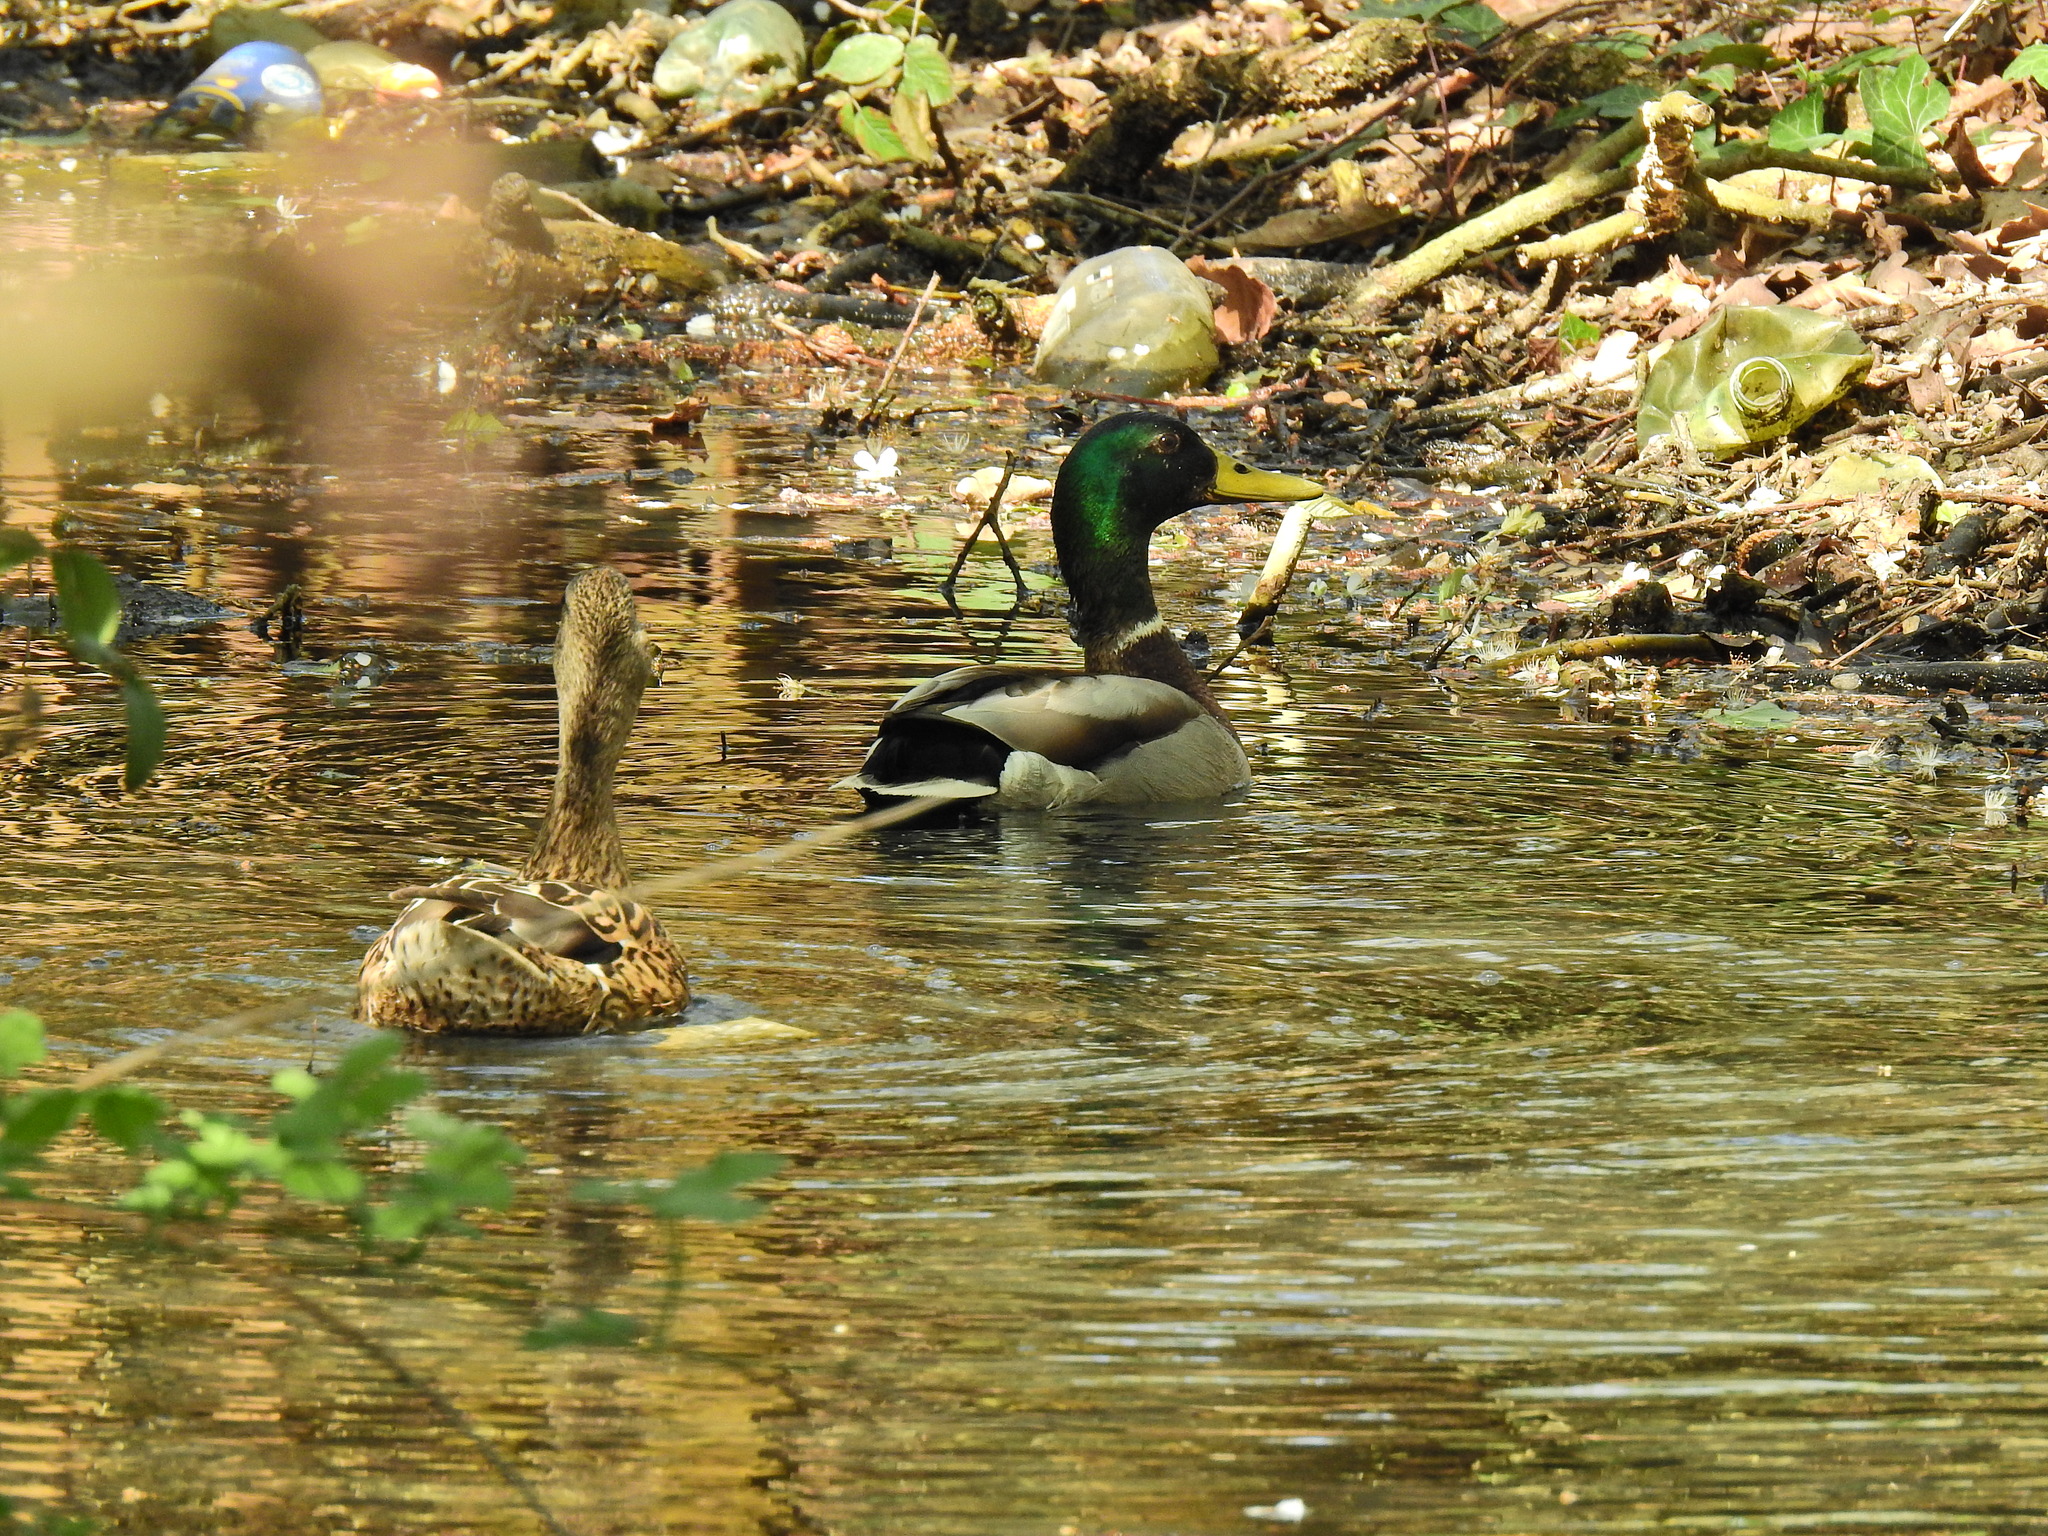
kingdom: Animalia
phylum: Chordata
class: Aves
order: Anseriformes
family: Anatidae
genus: Anas
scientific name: Anas platyrhynchos
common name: Mallard
